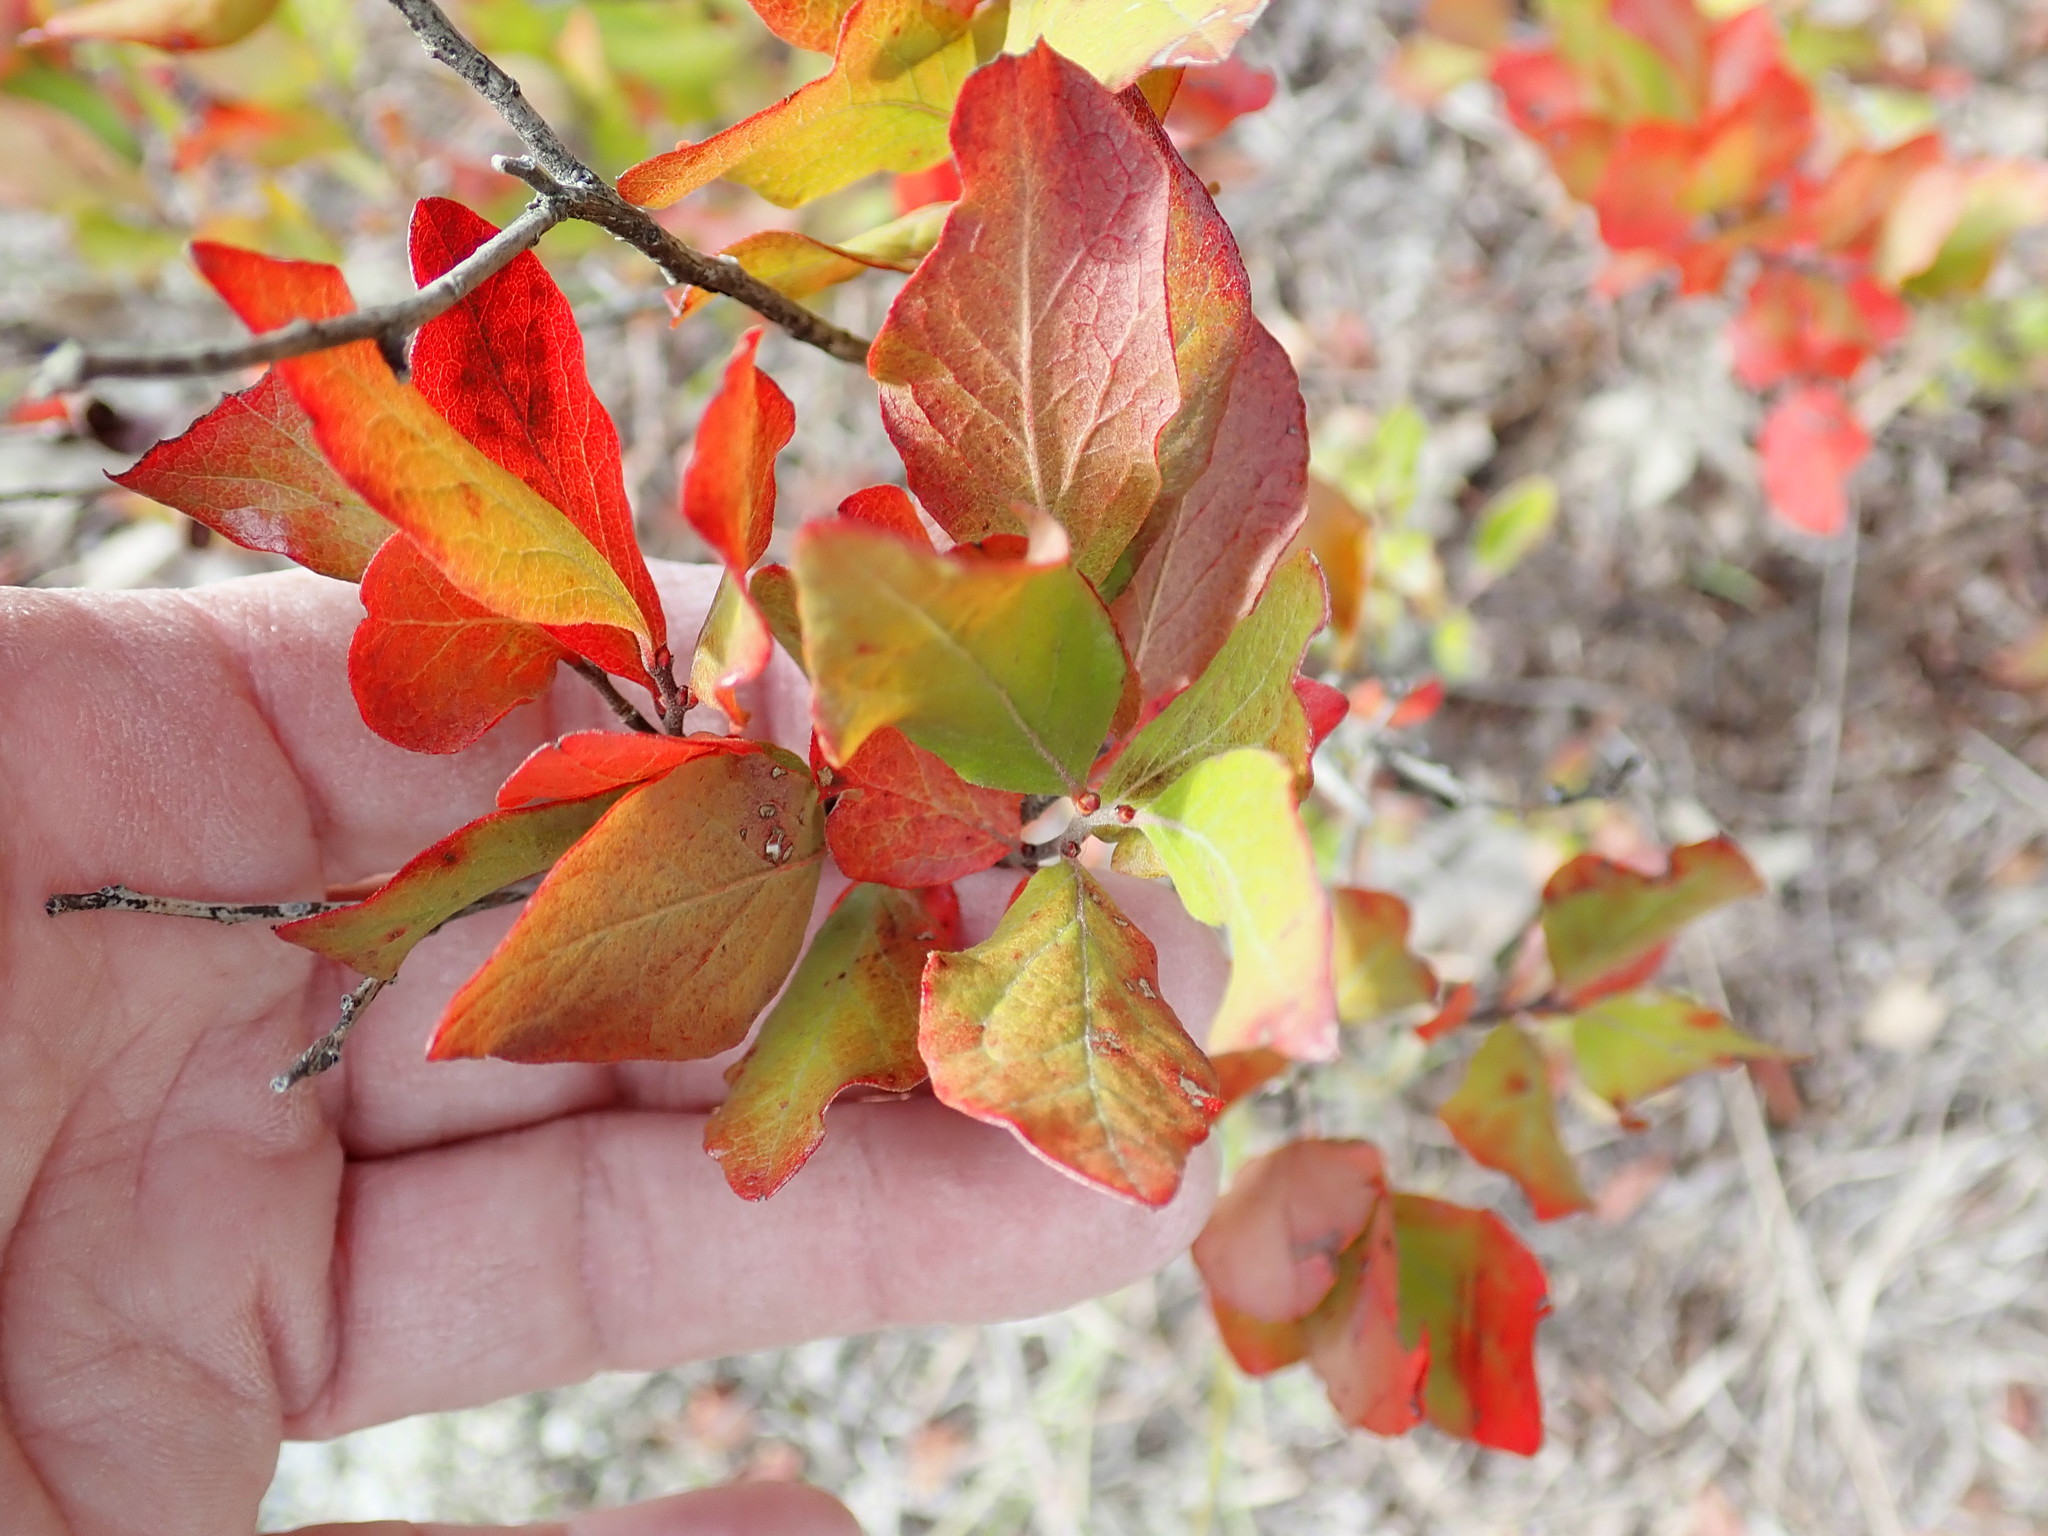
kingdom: Plantae
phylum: Tracheophyta
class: Magnoliopsida
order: Ericales
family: Ericaceae
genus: Vaccinium
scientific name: Vaccinium angustifolium
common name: Early lowbush blueberry
